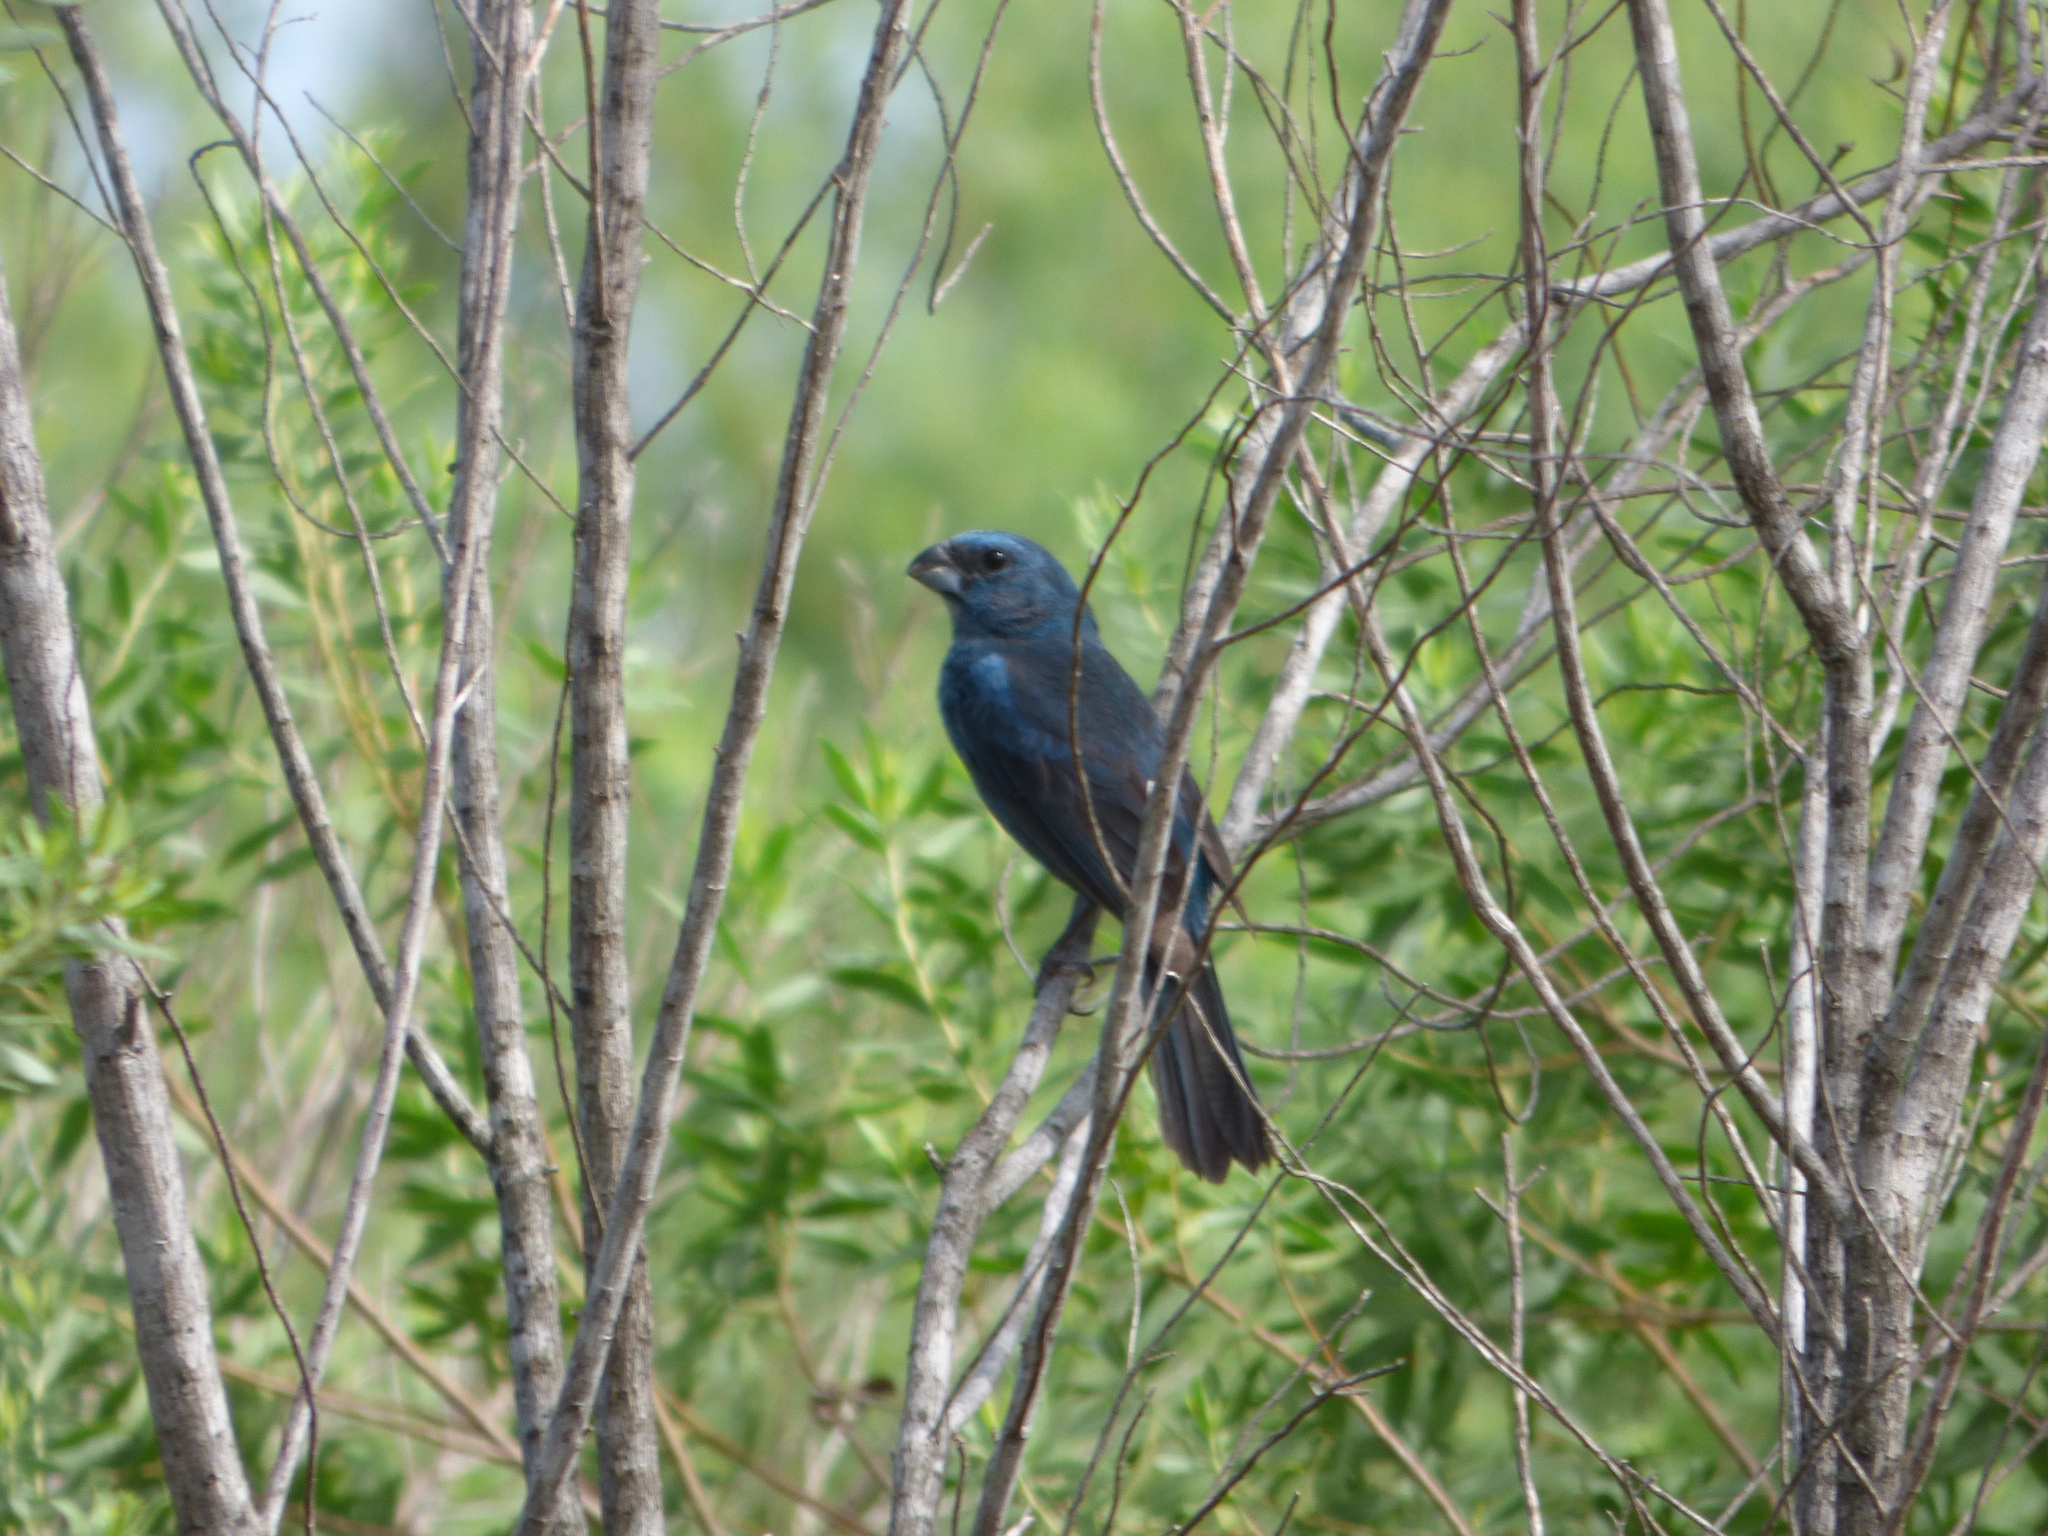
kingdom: Animalia
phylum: Chordata
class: Aves
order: Passeriformes
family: Cardinalidae
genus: Cyanoloxia
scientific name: Cyanoloxia glaucocaerulea
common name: Glaucous-blue grosbeak
